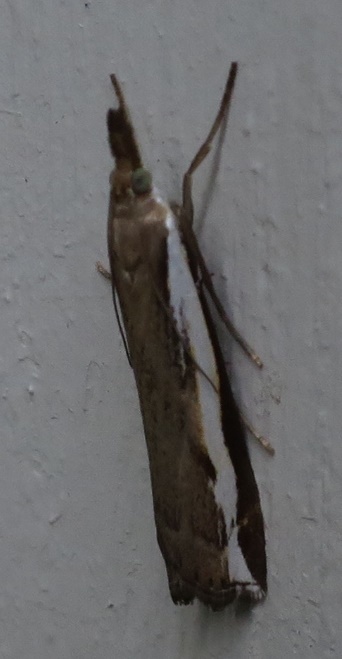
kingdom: Animalia
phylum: Arthropoda
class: Insecta
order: Lepidoptera
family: Crambidae
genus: Orocrambus
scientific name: Orocrambus flexuosellus
